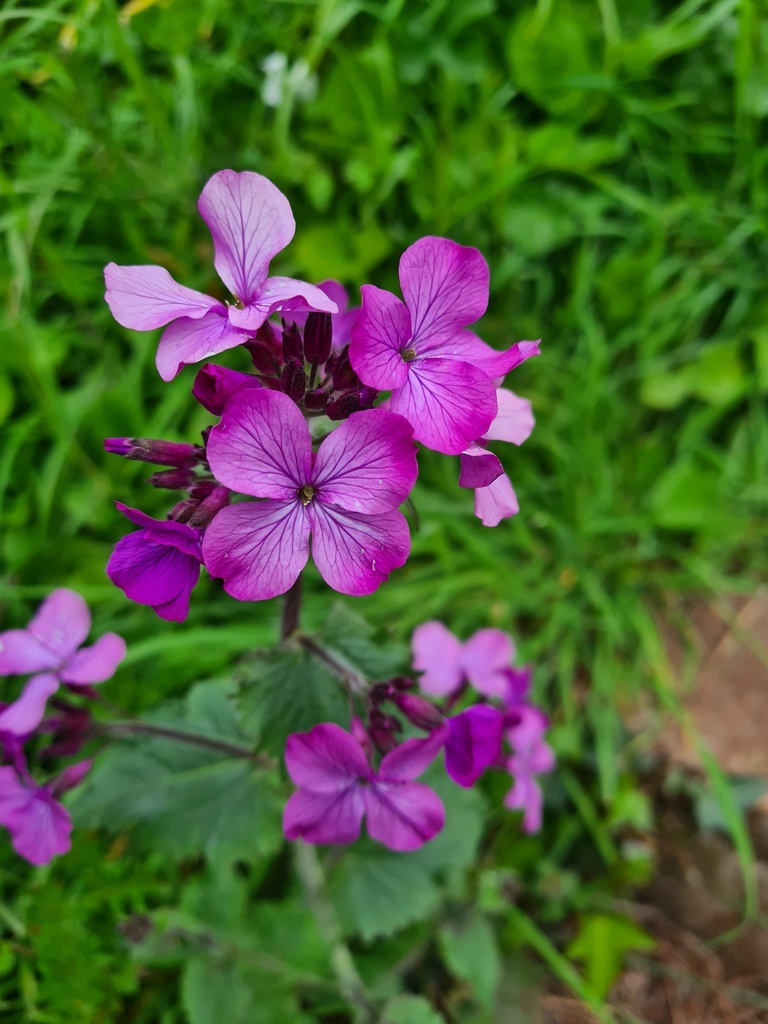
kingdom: Plantae
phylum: Tracheophyta
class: Magnoliopsida
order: Brassicales
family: Brassicaceae
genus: Lunaria
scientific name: Lunaria annua
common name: Honesty
